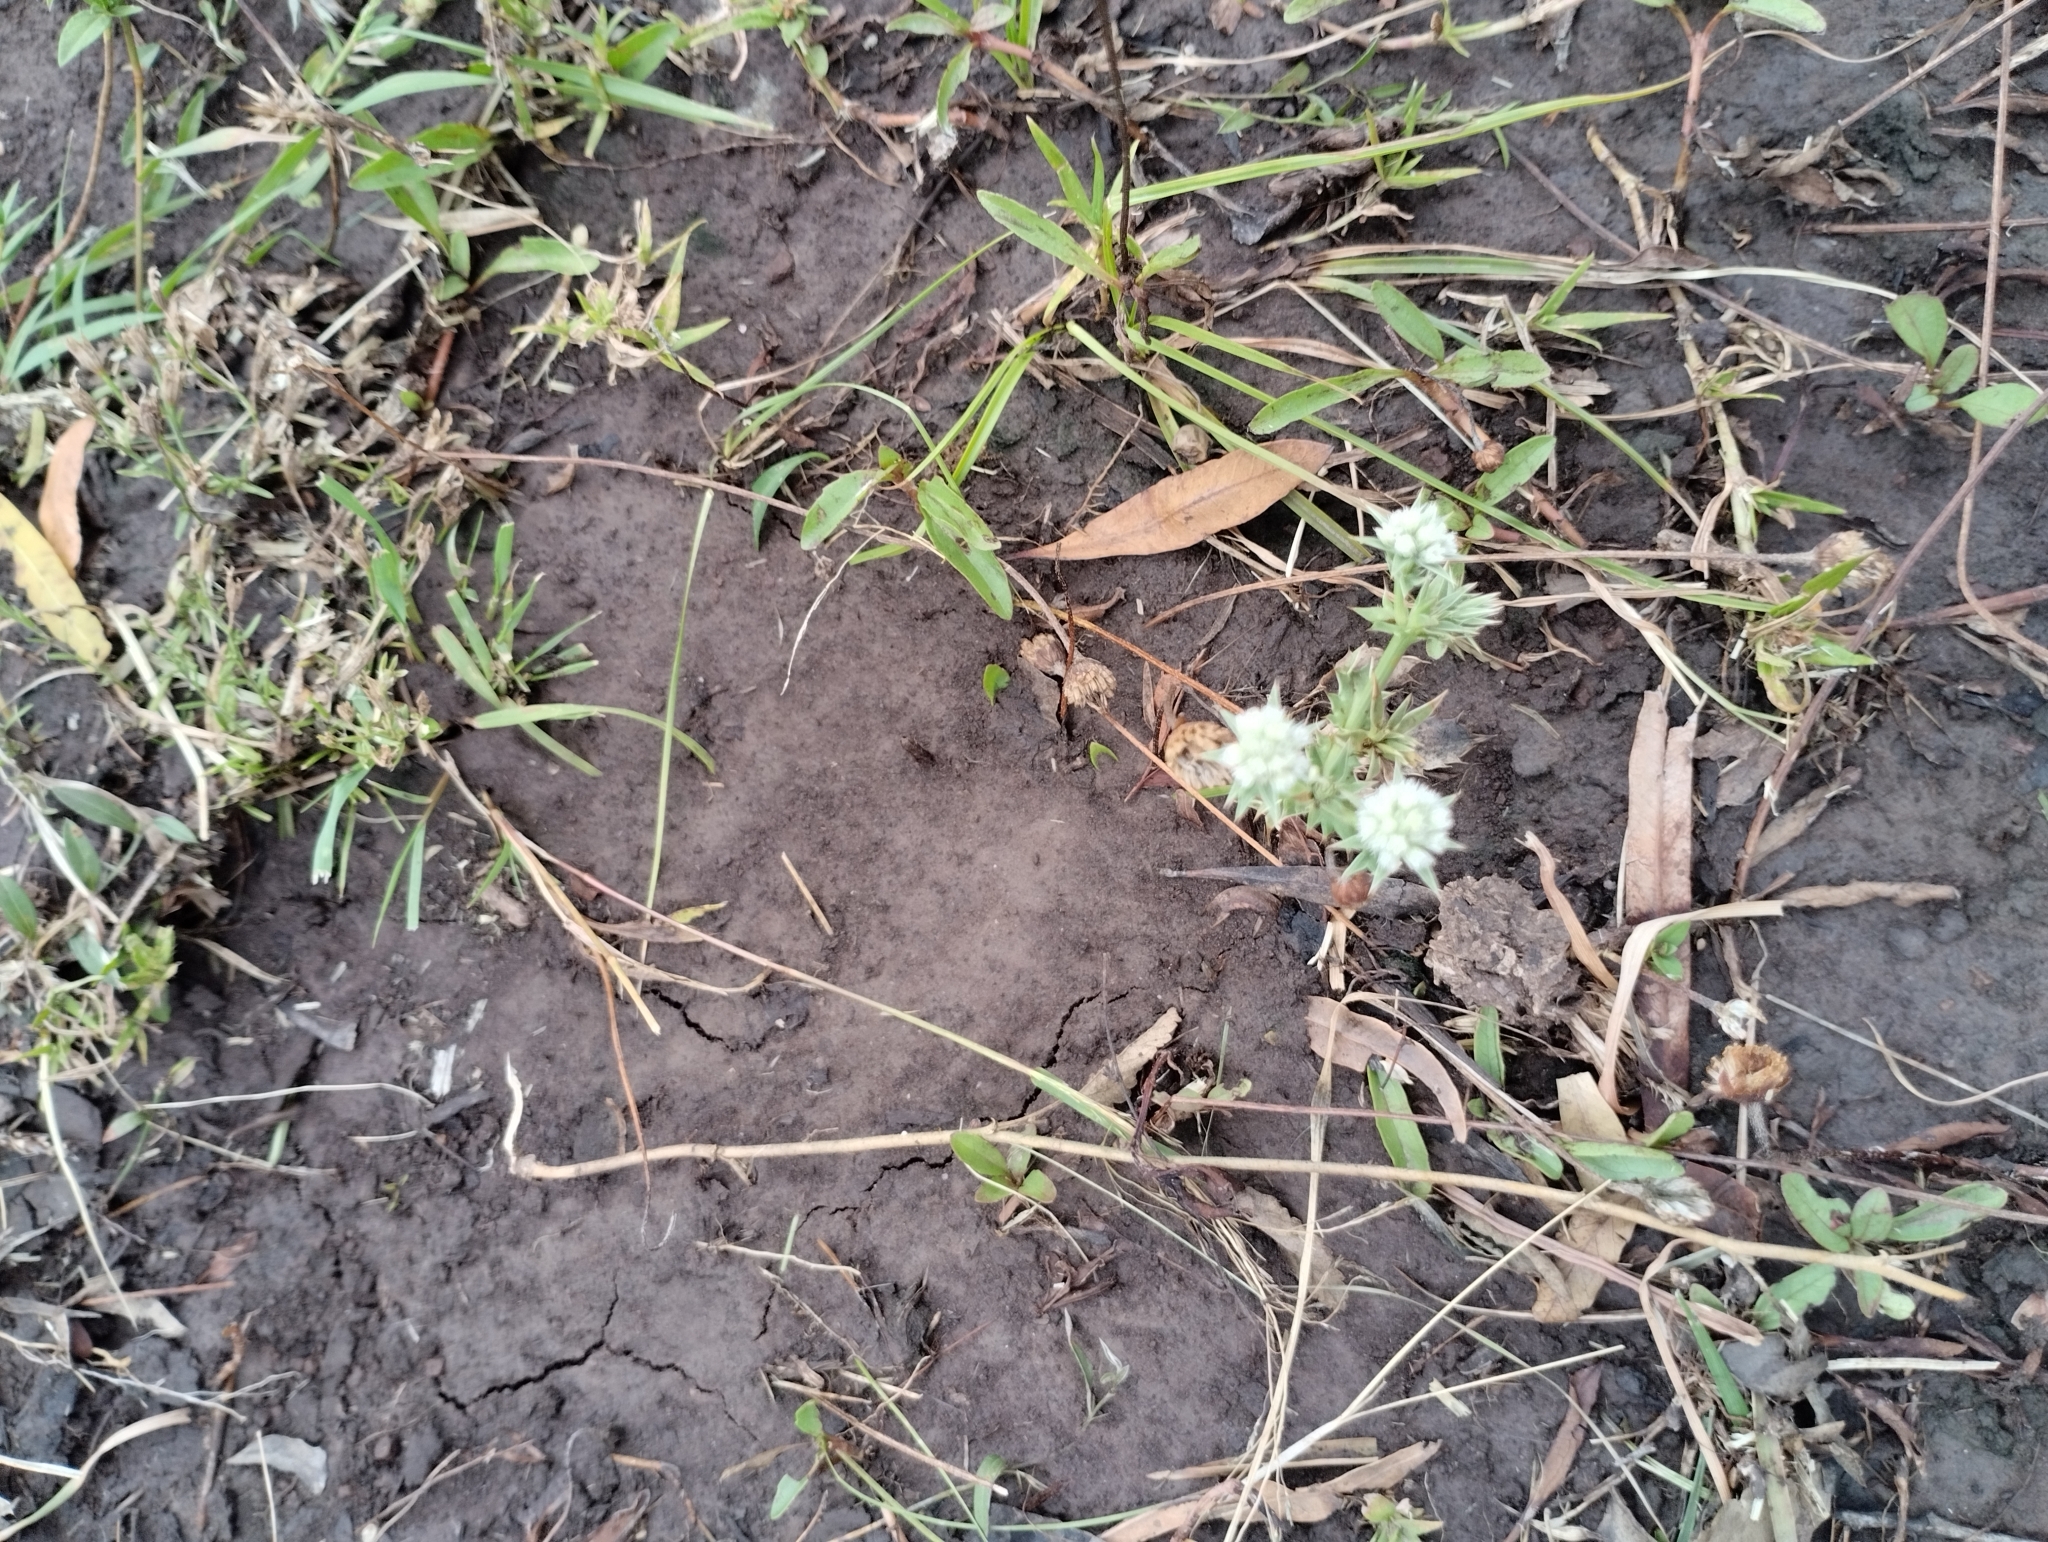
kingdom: Plantae
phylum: Tracheophyta
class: Magnoliopsida
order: Apiales
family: Apiaceae
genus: Eryngium
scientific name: Eryngium nudicaule
